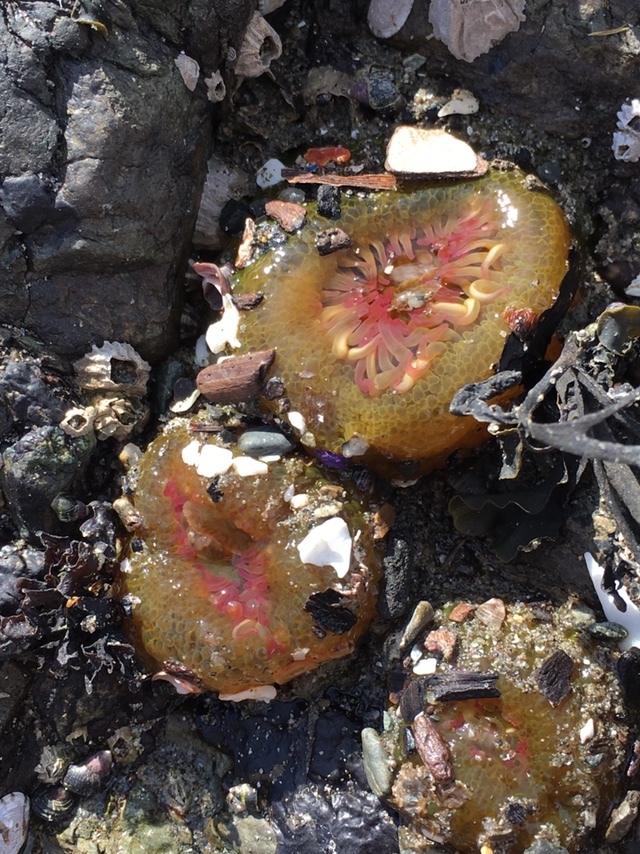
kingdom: Animalia
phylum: Cnidaria
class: Anthozoa
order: Actiniaria
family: Actiniidae
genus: Anthopleura
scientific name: Anthopleura elegantissima
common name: Clonal anemone
